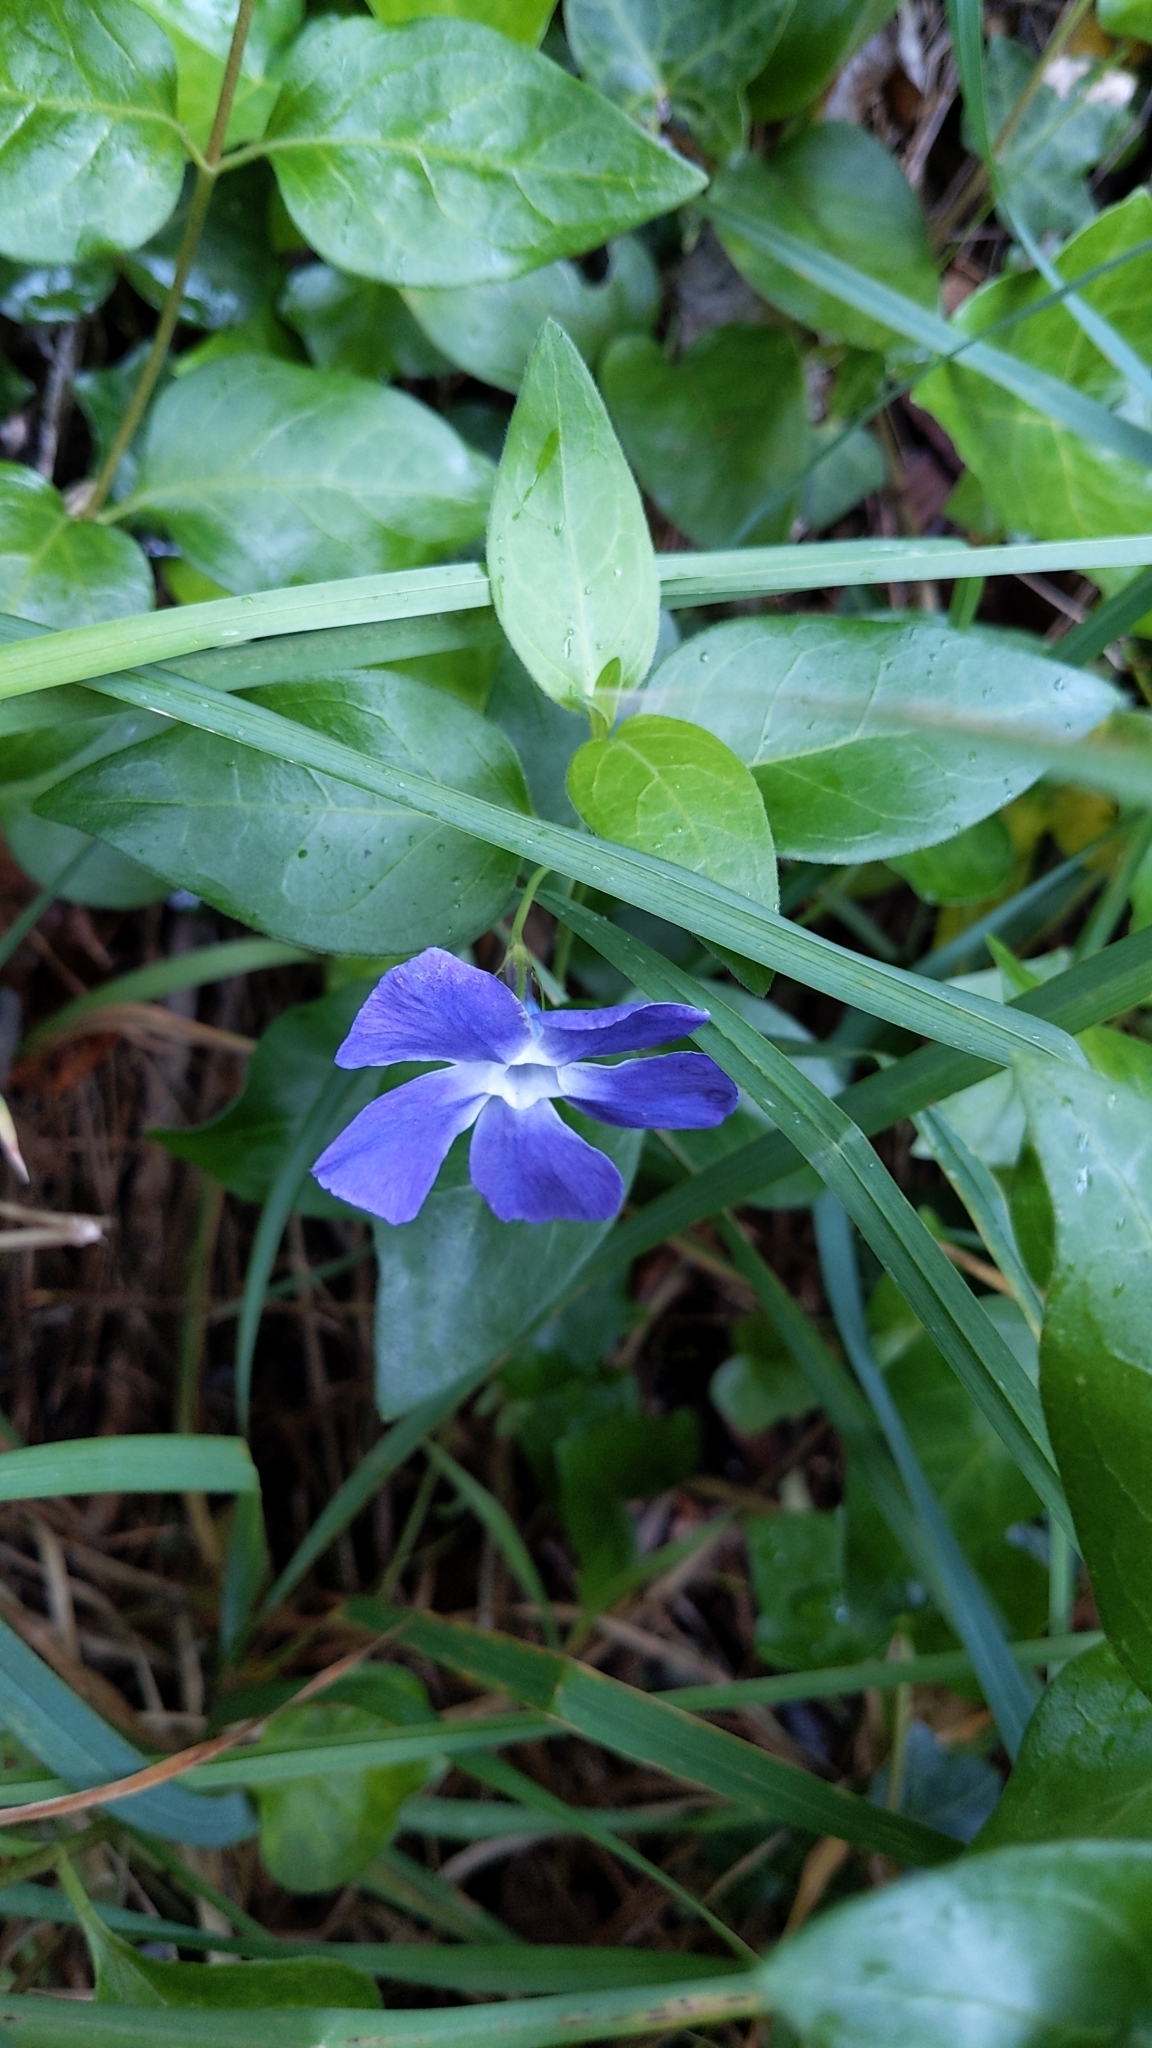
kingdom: Plantae
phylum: Tracheophyta
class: Magnoliopsida
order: Gentianales
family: Apocynaceae
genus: Vinca
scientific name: Vinca major
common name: Greater periwinkle
